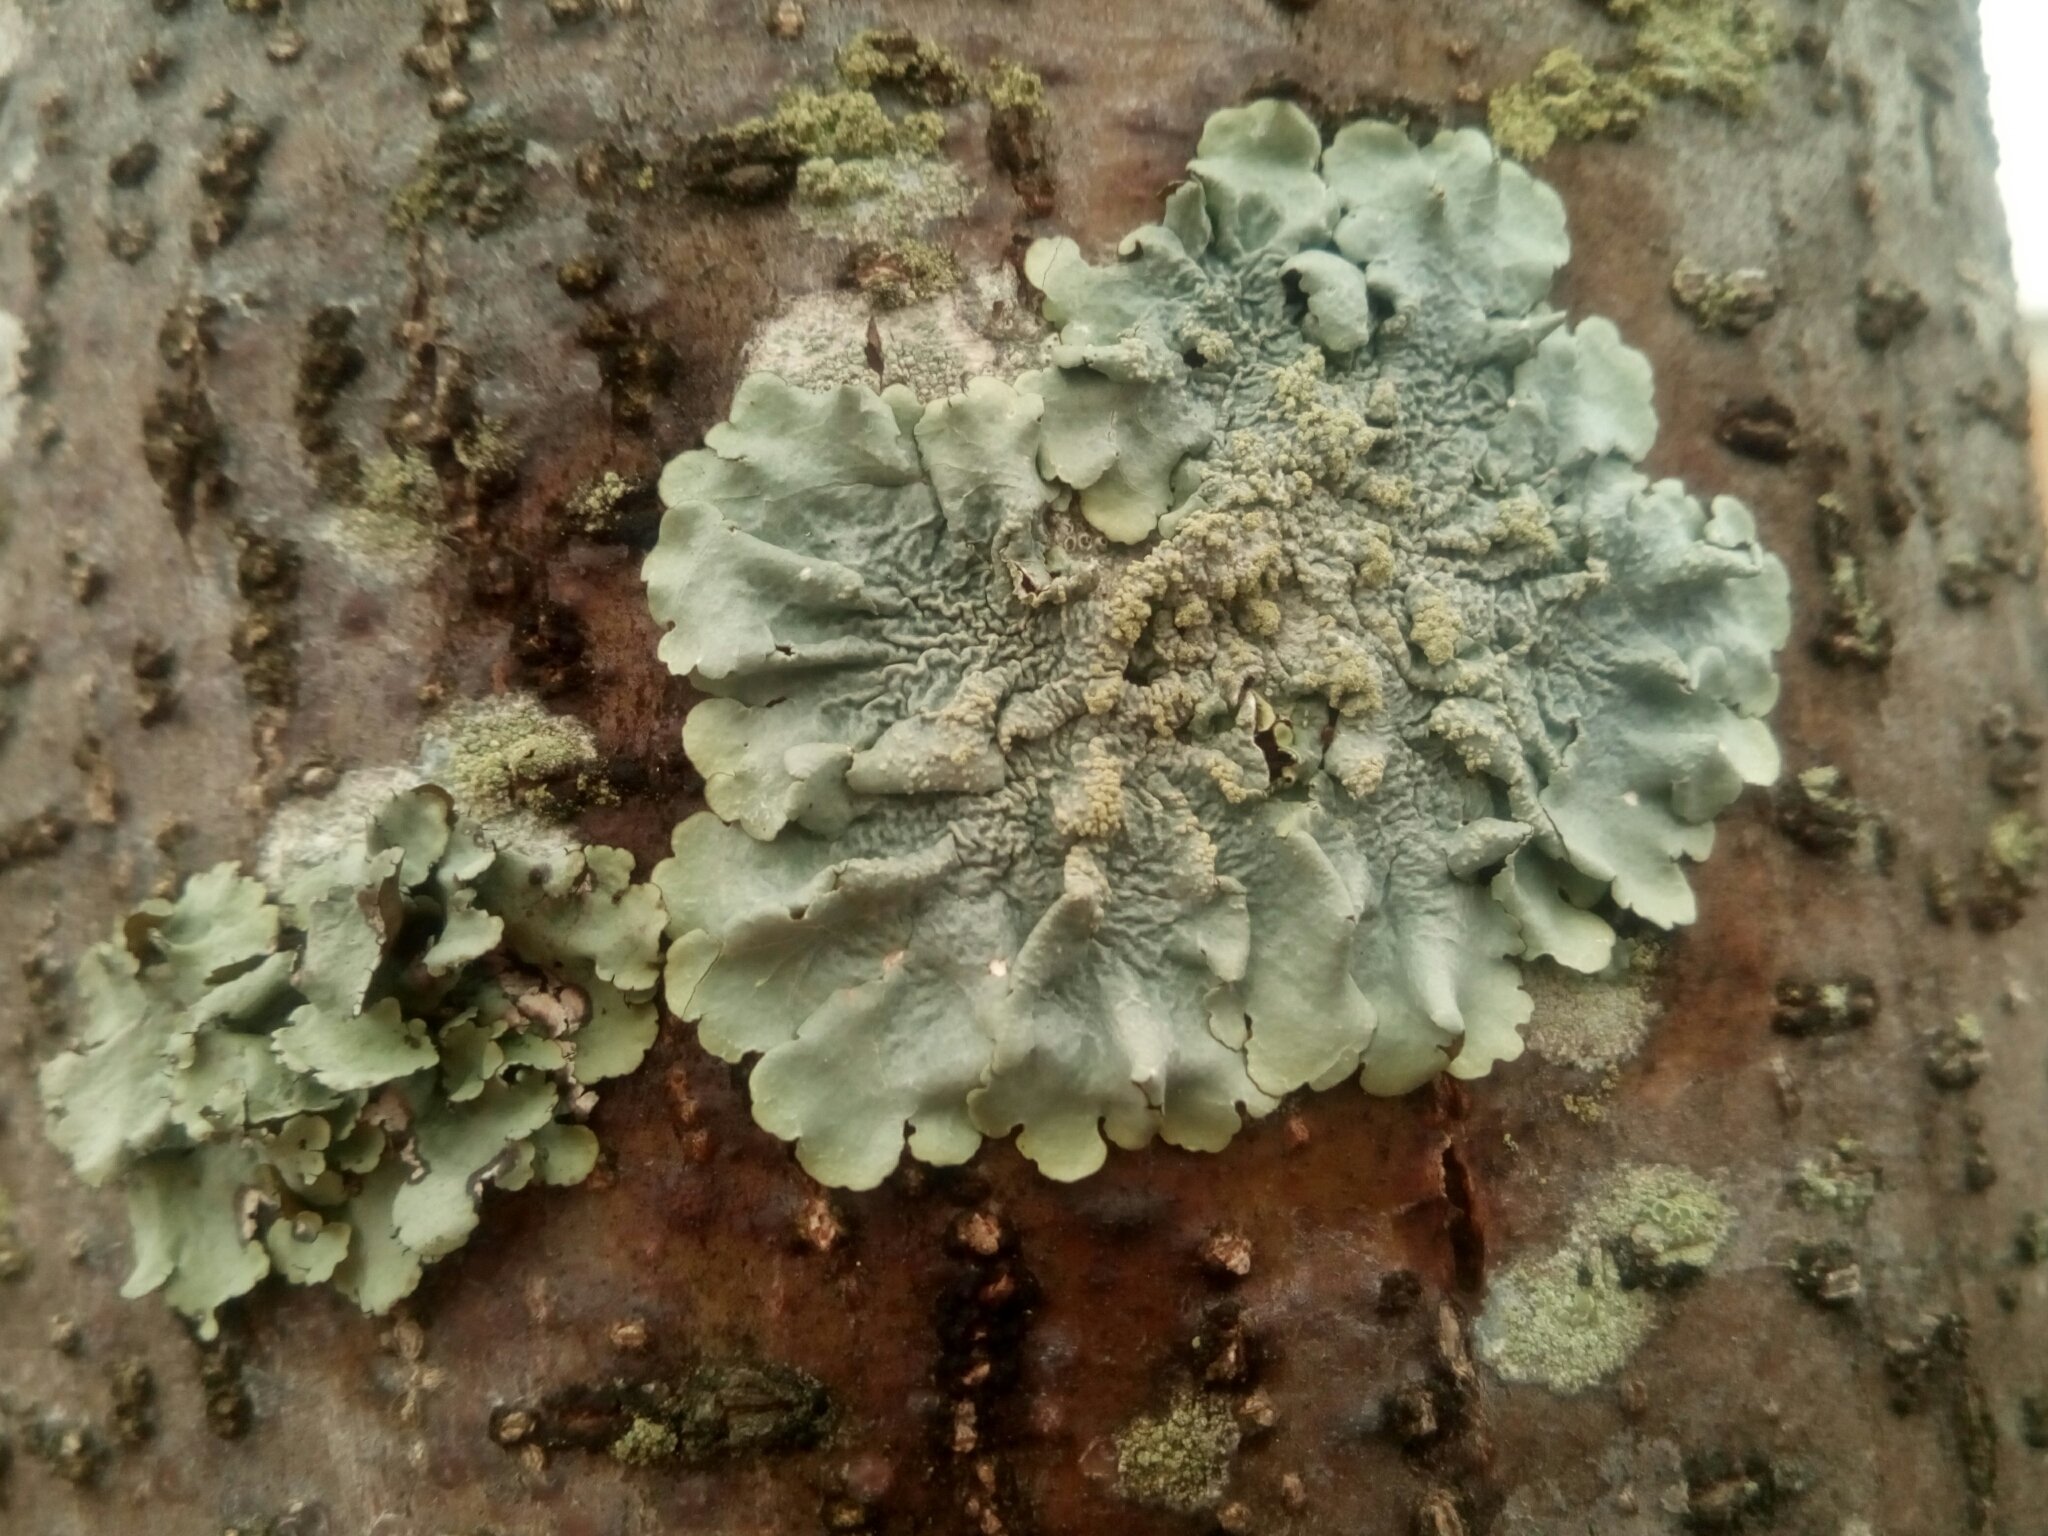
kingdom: Fungi
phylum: Ascomycota
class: Lecanoromycetes
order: Lecanorales
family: Parmeliaceae
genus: Flavoparmelia
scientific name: Flavoparmelia caperata
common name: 40-mile per hour lichen
